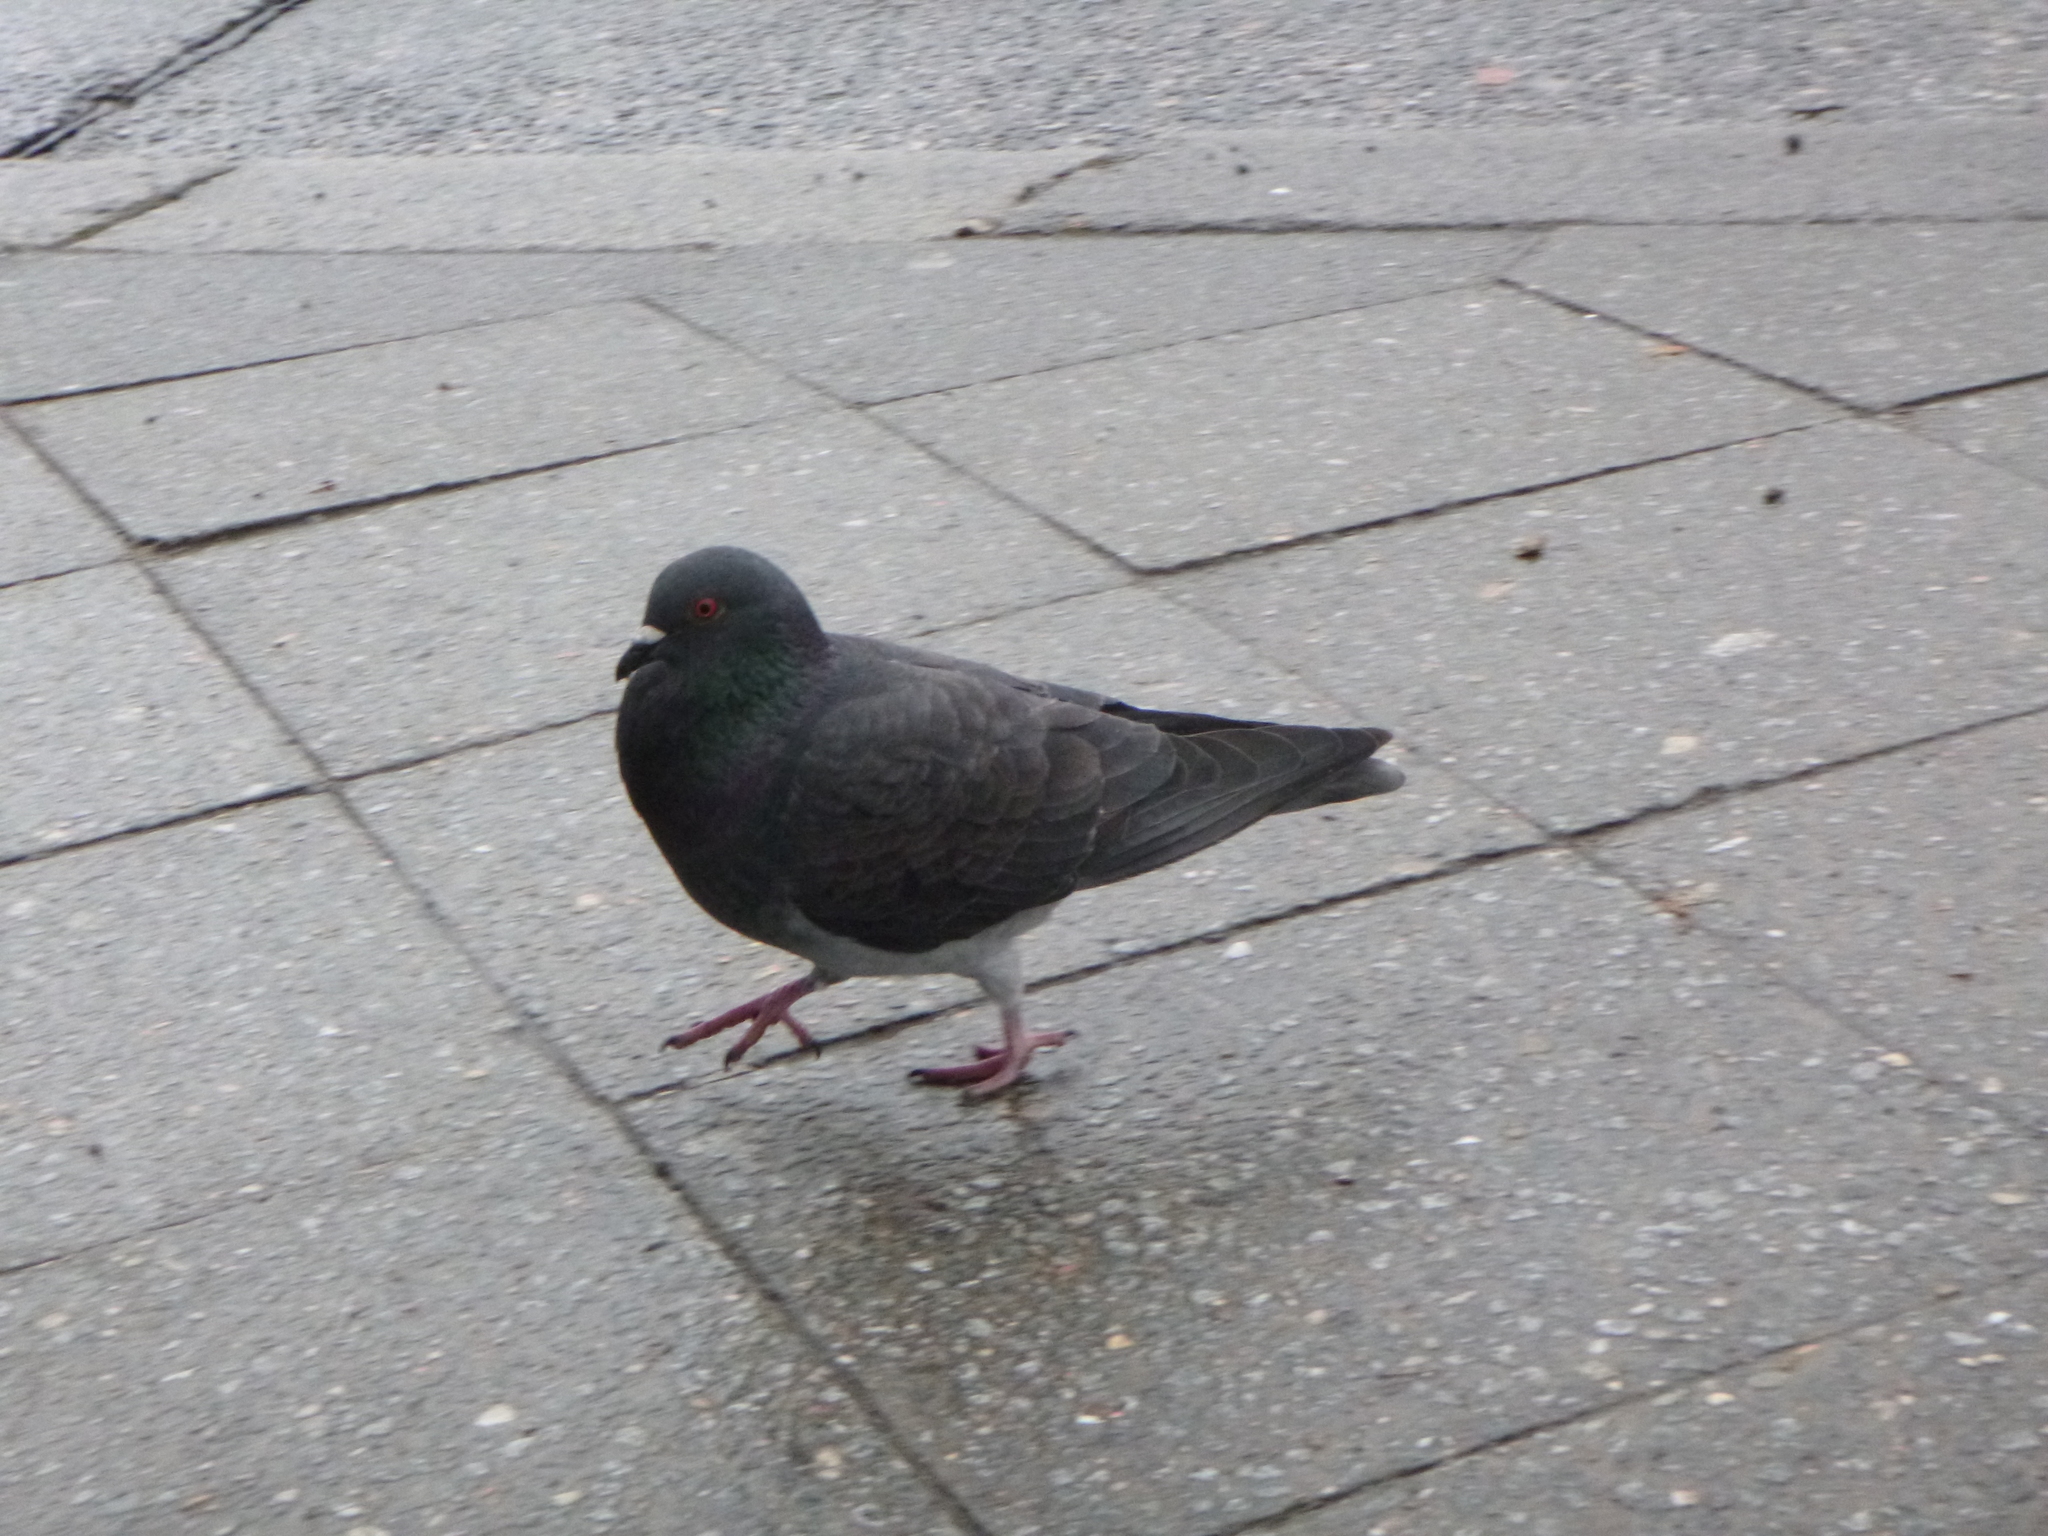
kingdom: Animalia
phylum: Chordata
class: Aves
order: Columbiformes
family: Columbidae
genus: Columba
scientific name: Columba livia
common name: Rock pigeon
